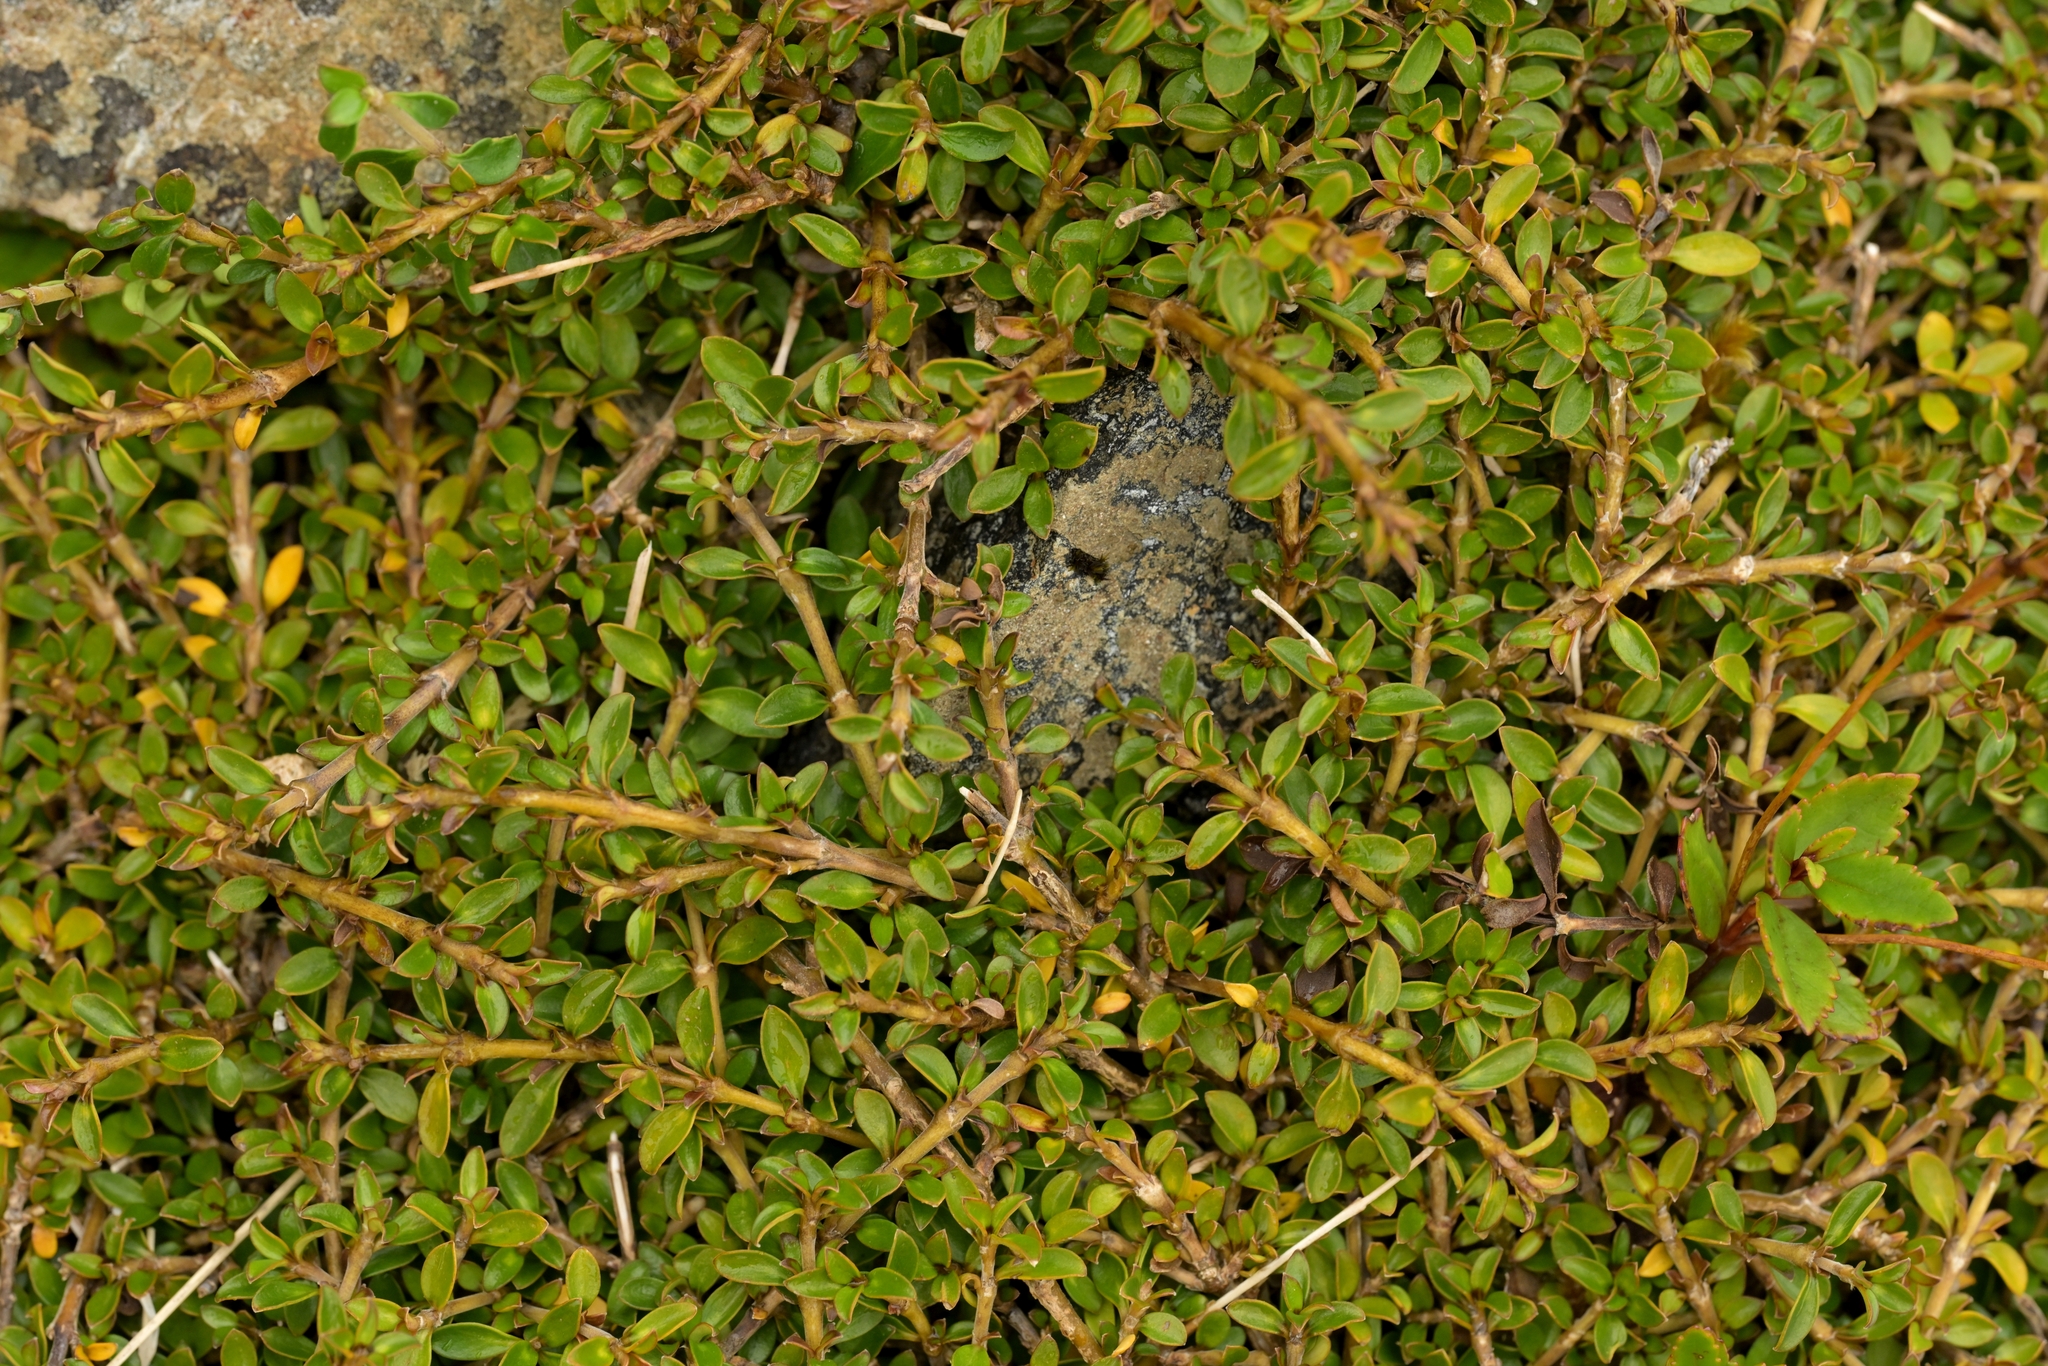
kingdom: Plantae
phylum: Tracheophyta
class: Magnoliopsida
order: Gentianales
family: Rubiaceae
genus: Coprosma
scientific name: Coprosma depressa
